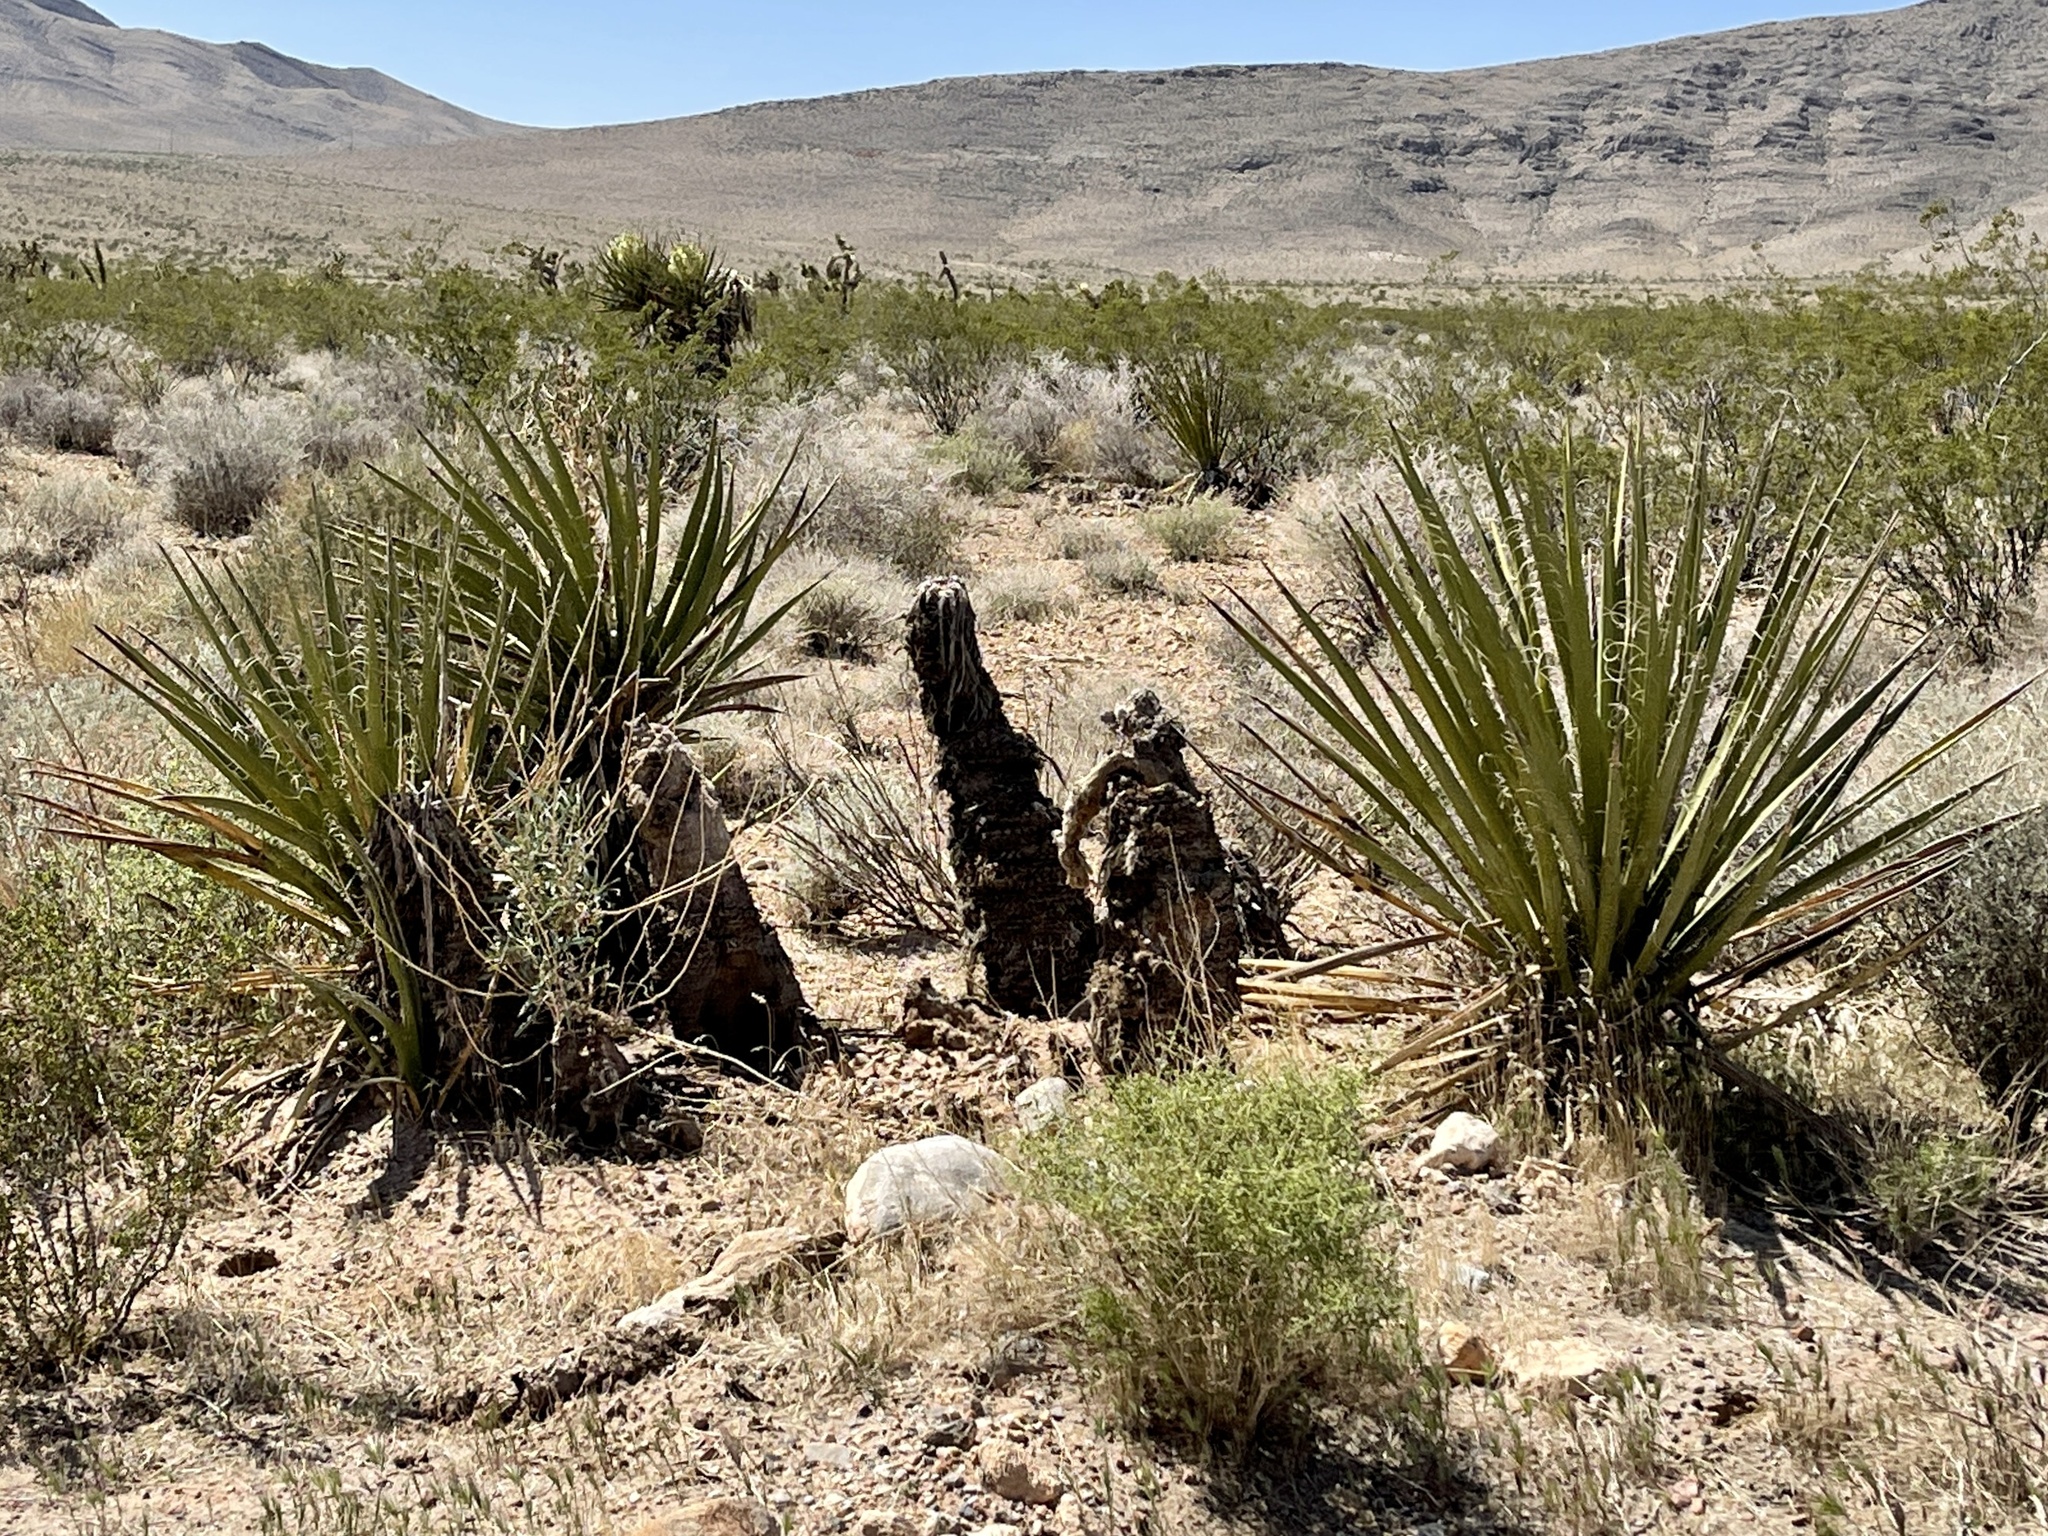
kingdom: Plantae
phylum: Tracheophyta
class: Liliopsida
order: Asparagales
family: Asparagaceae
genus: Yucca
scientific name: Yucca schidigera
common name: Mojave yucca
